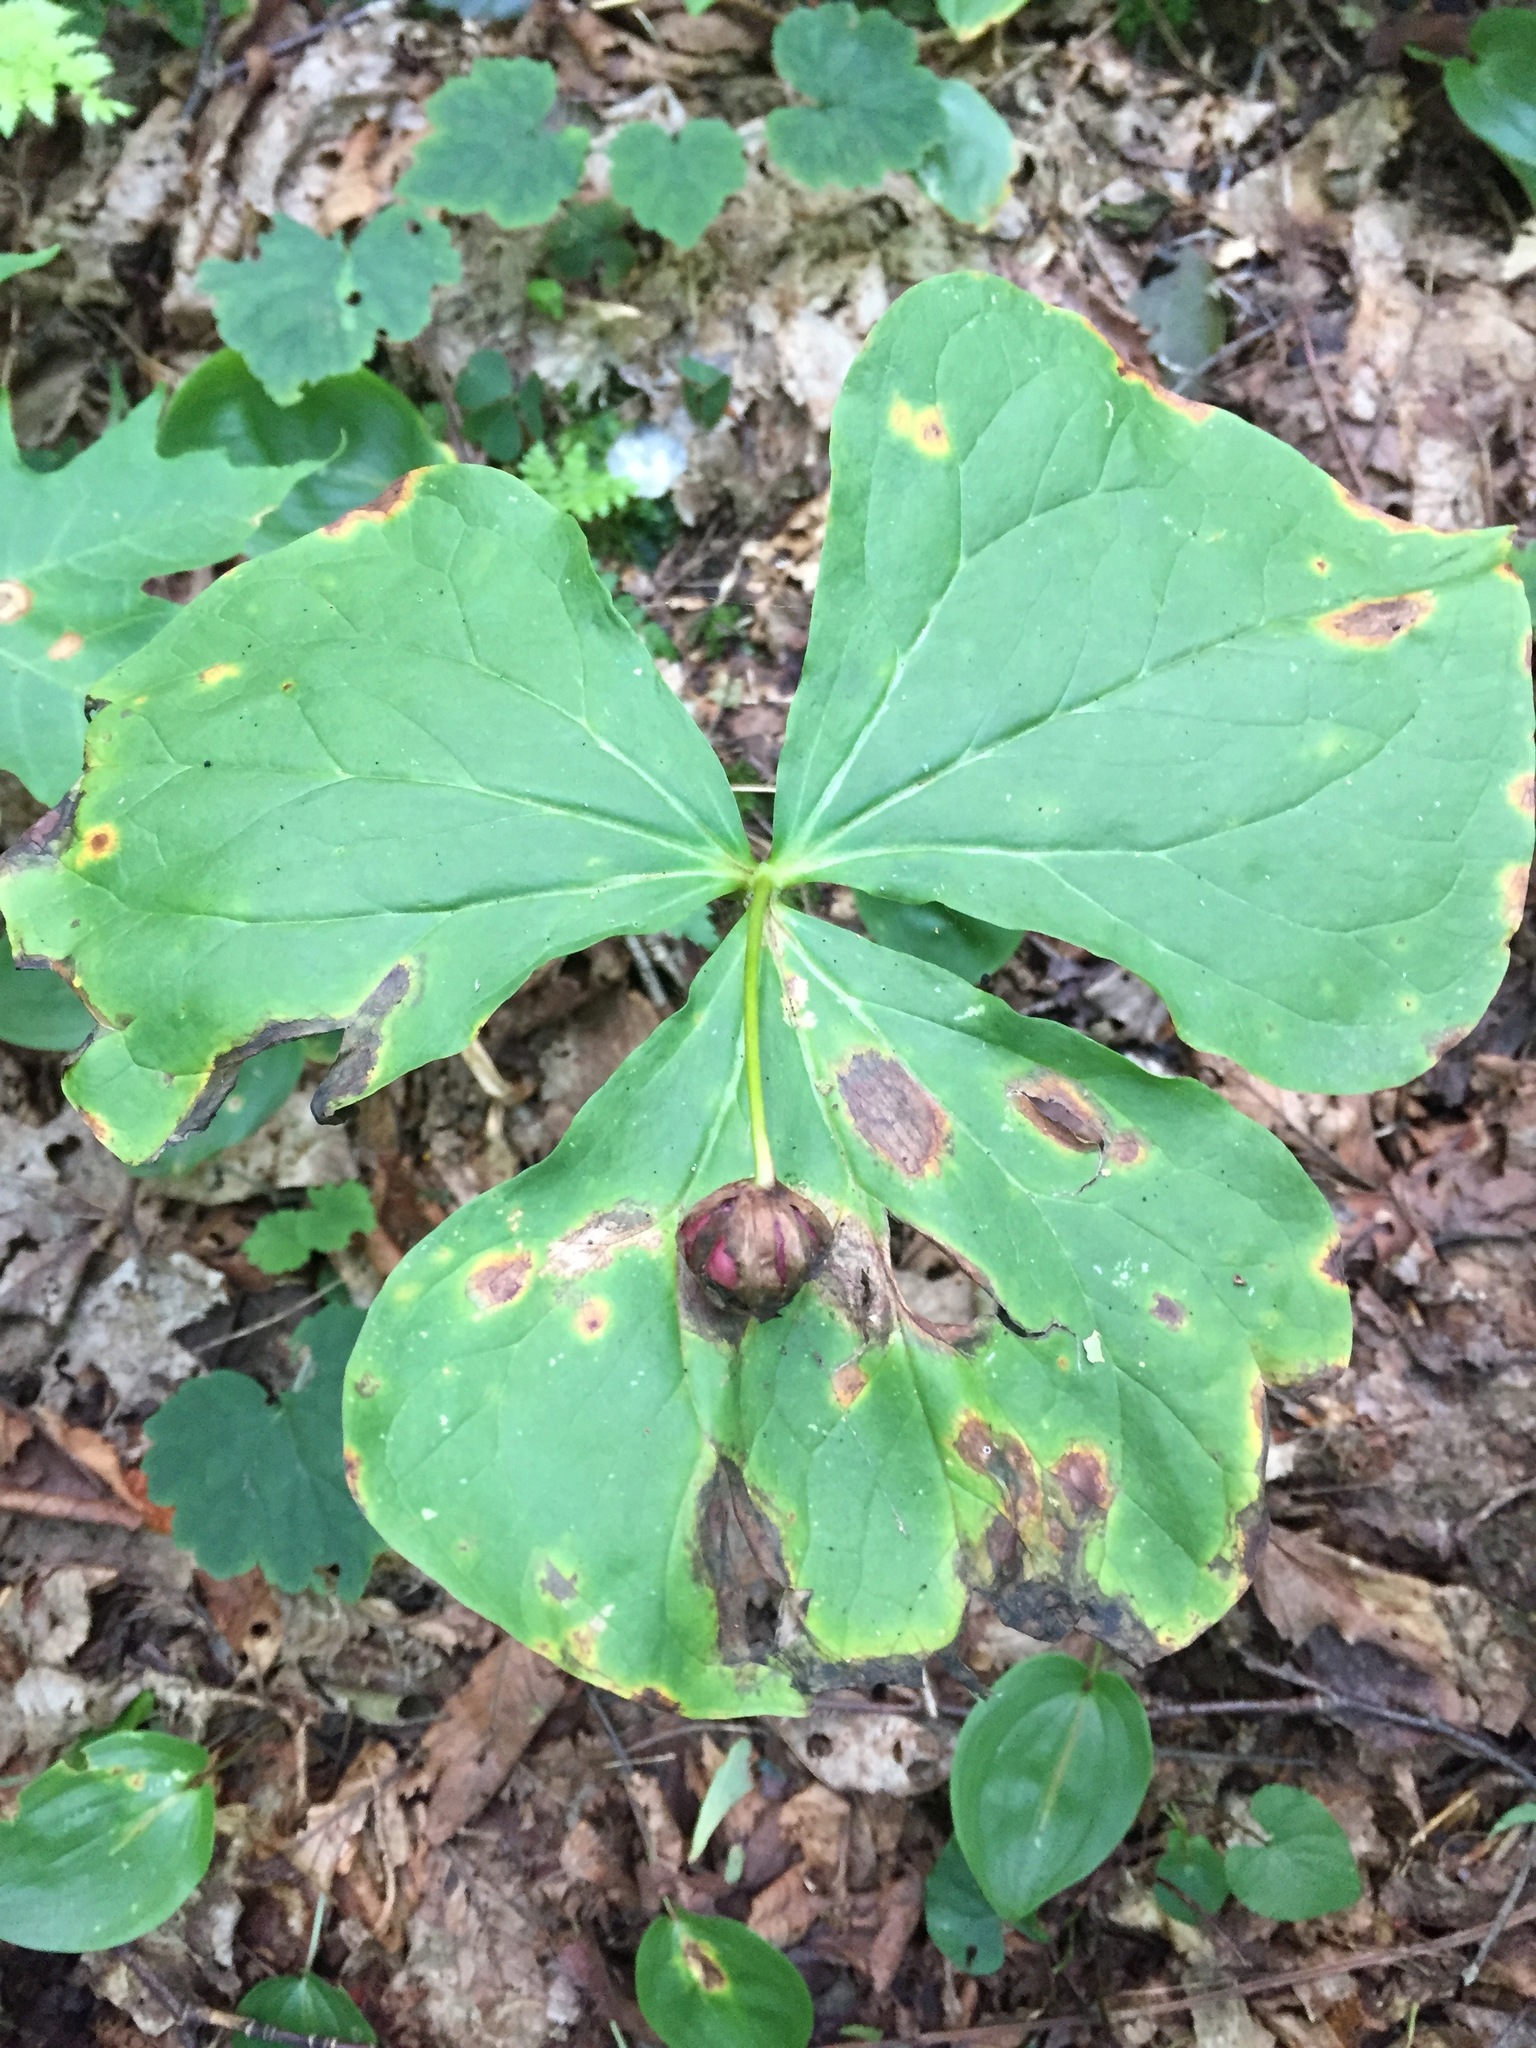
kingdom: Plantae
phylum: Tracheophyta
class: Liliopsida
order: Liliales
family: Melanthiaceae
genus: Trillium
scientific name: Trillium erectum
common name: Purple trillium
